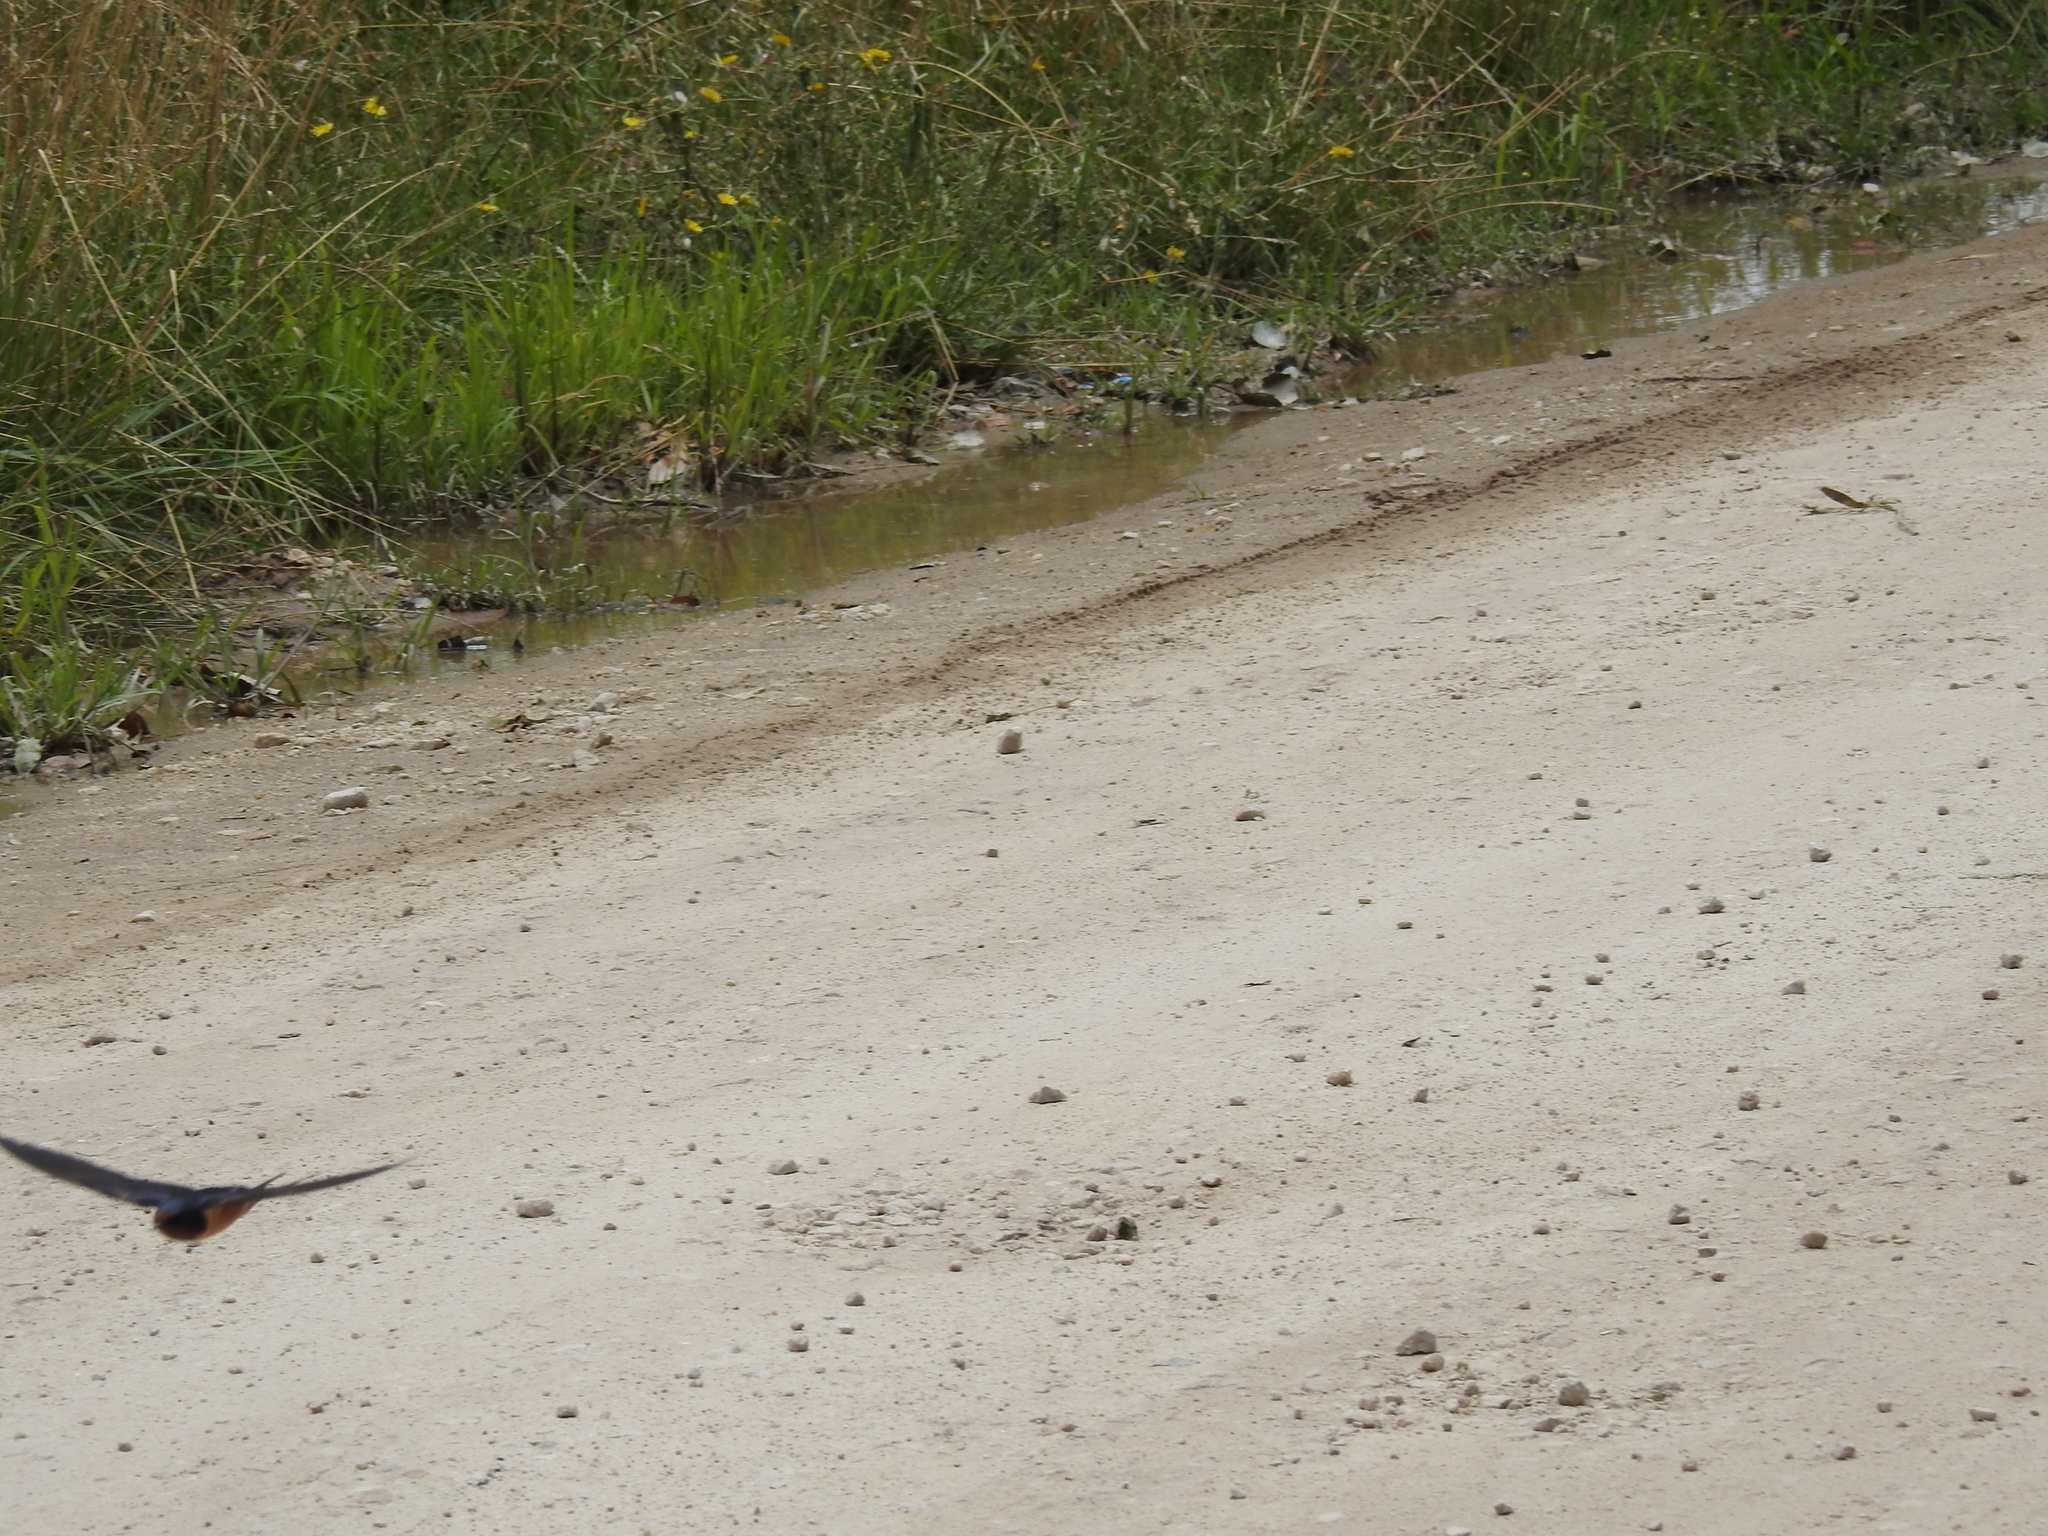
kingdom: Animalia
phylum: Chordata
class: Aves
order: Passeriformes
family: Hirundinidae
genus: Hirundo
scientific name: Hirundo rustica
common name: Barn swallow
